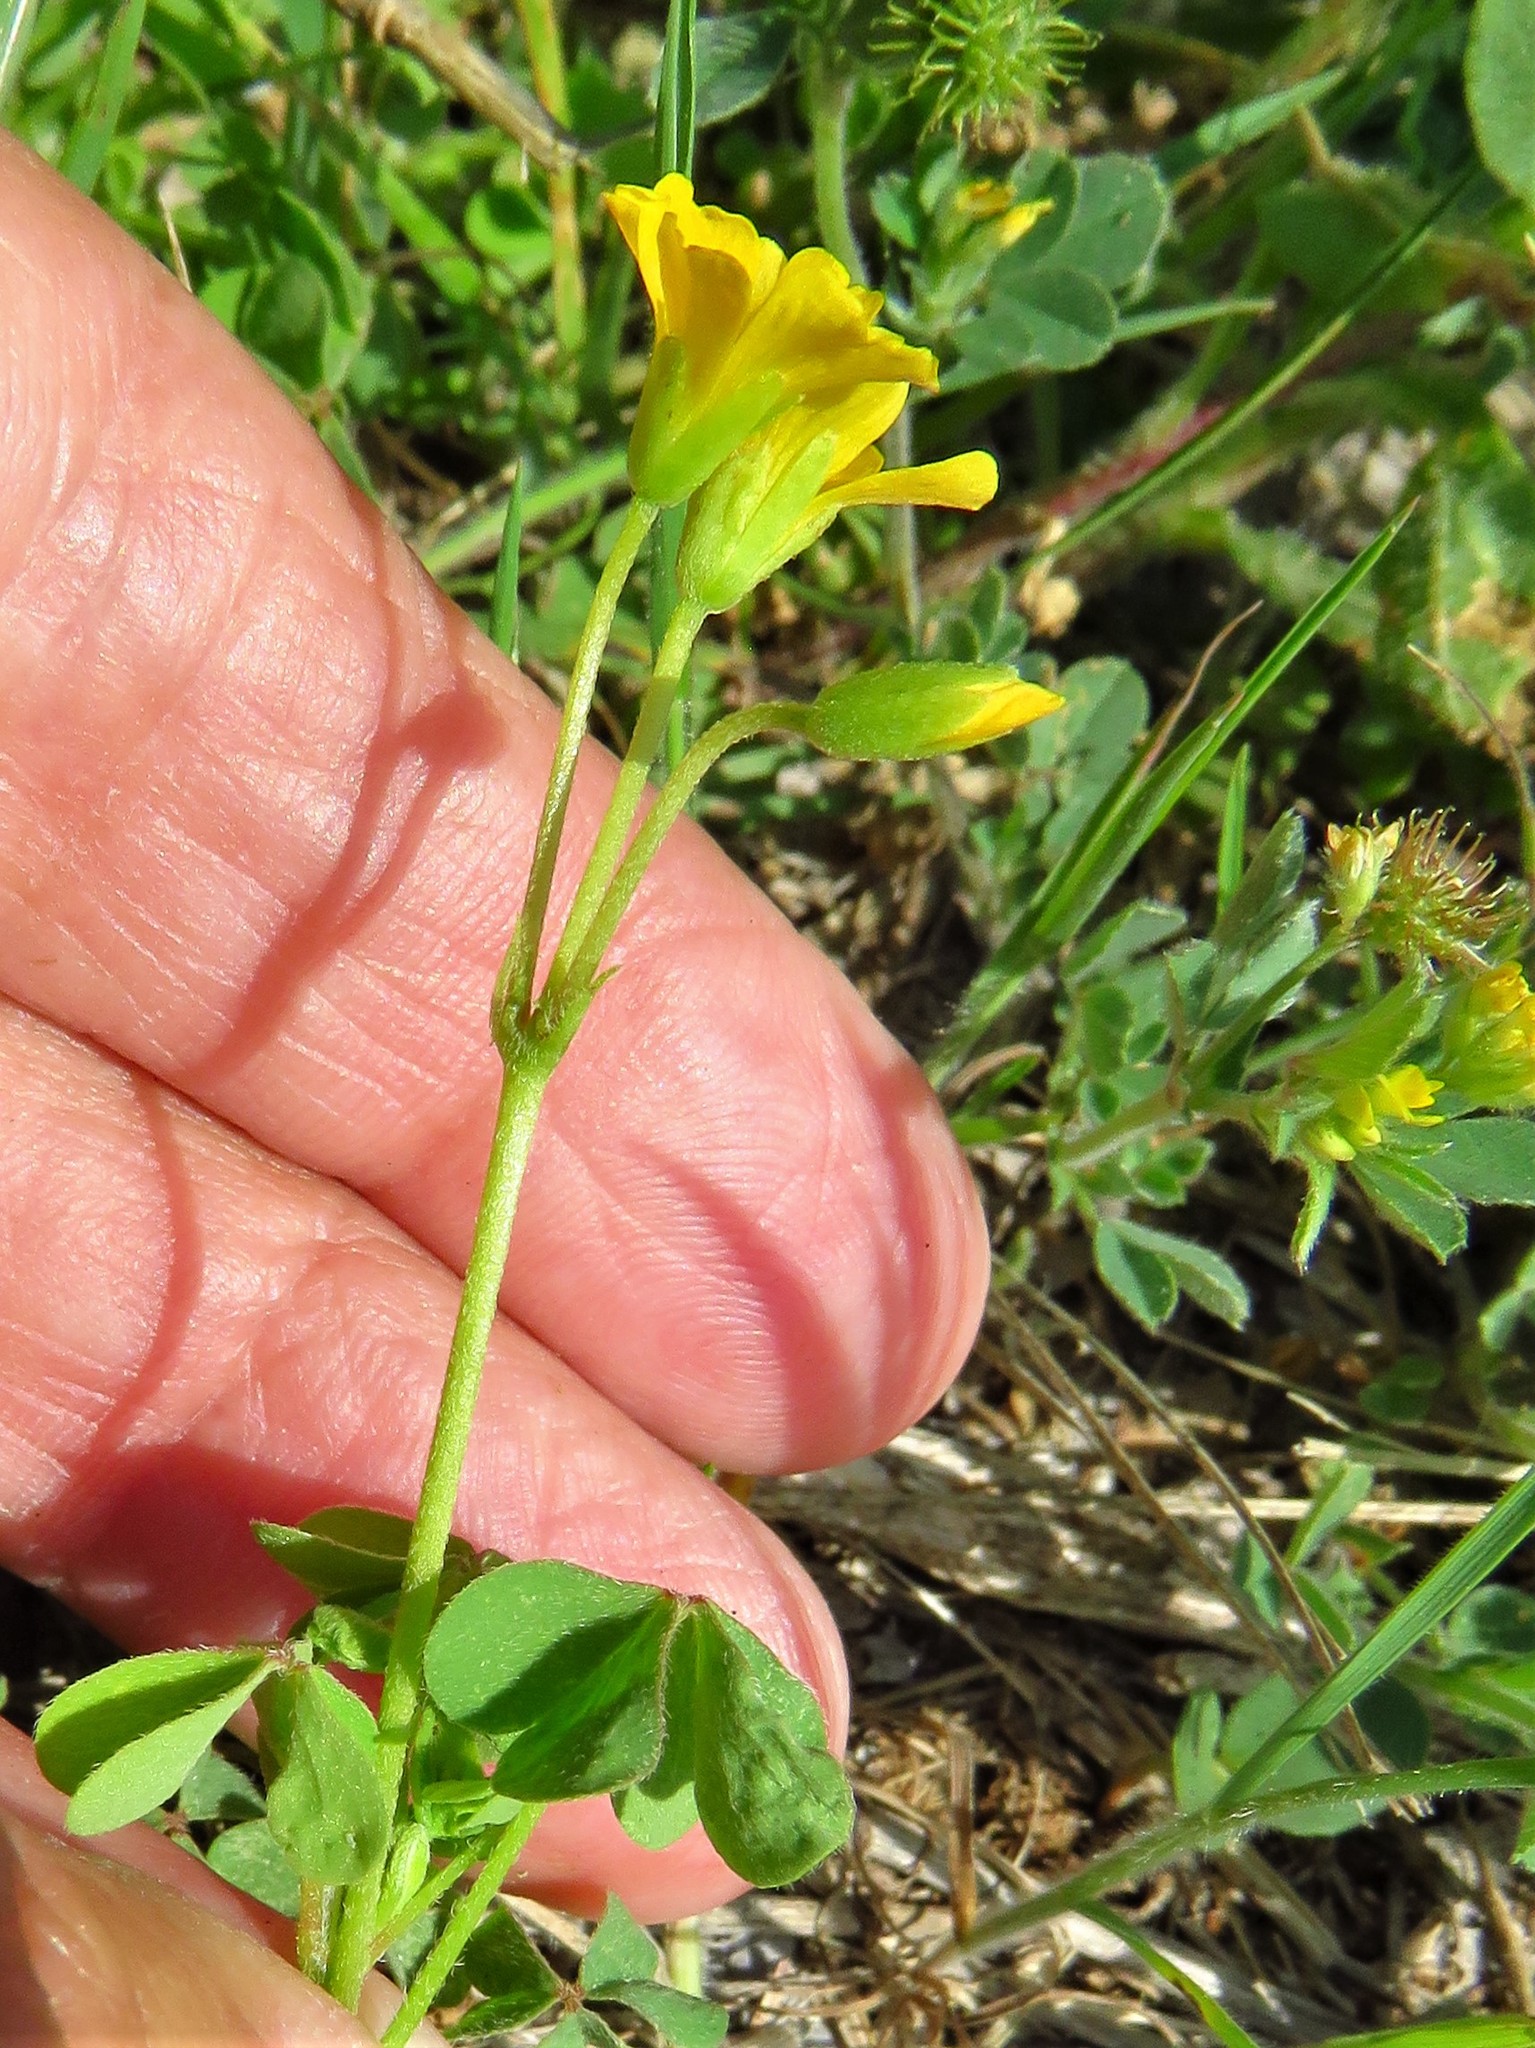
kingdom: Plantae
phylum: Tracheophyta
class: Magnoliopsida
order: Oxalidales
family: Oxalidaceae
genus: Oxalis
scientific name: Oxalis dillenii
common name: Sussex yellow-sorrel
